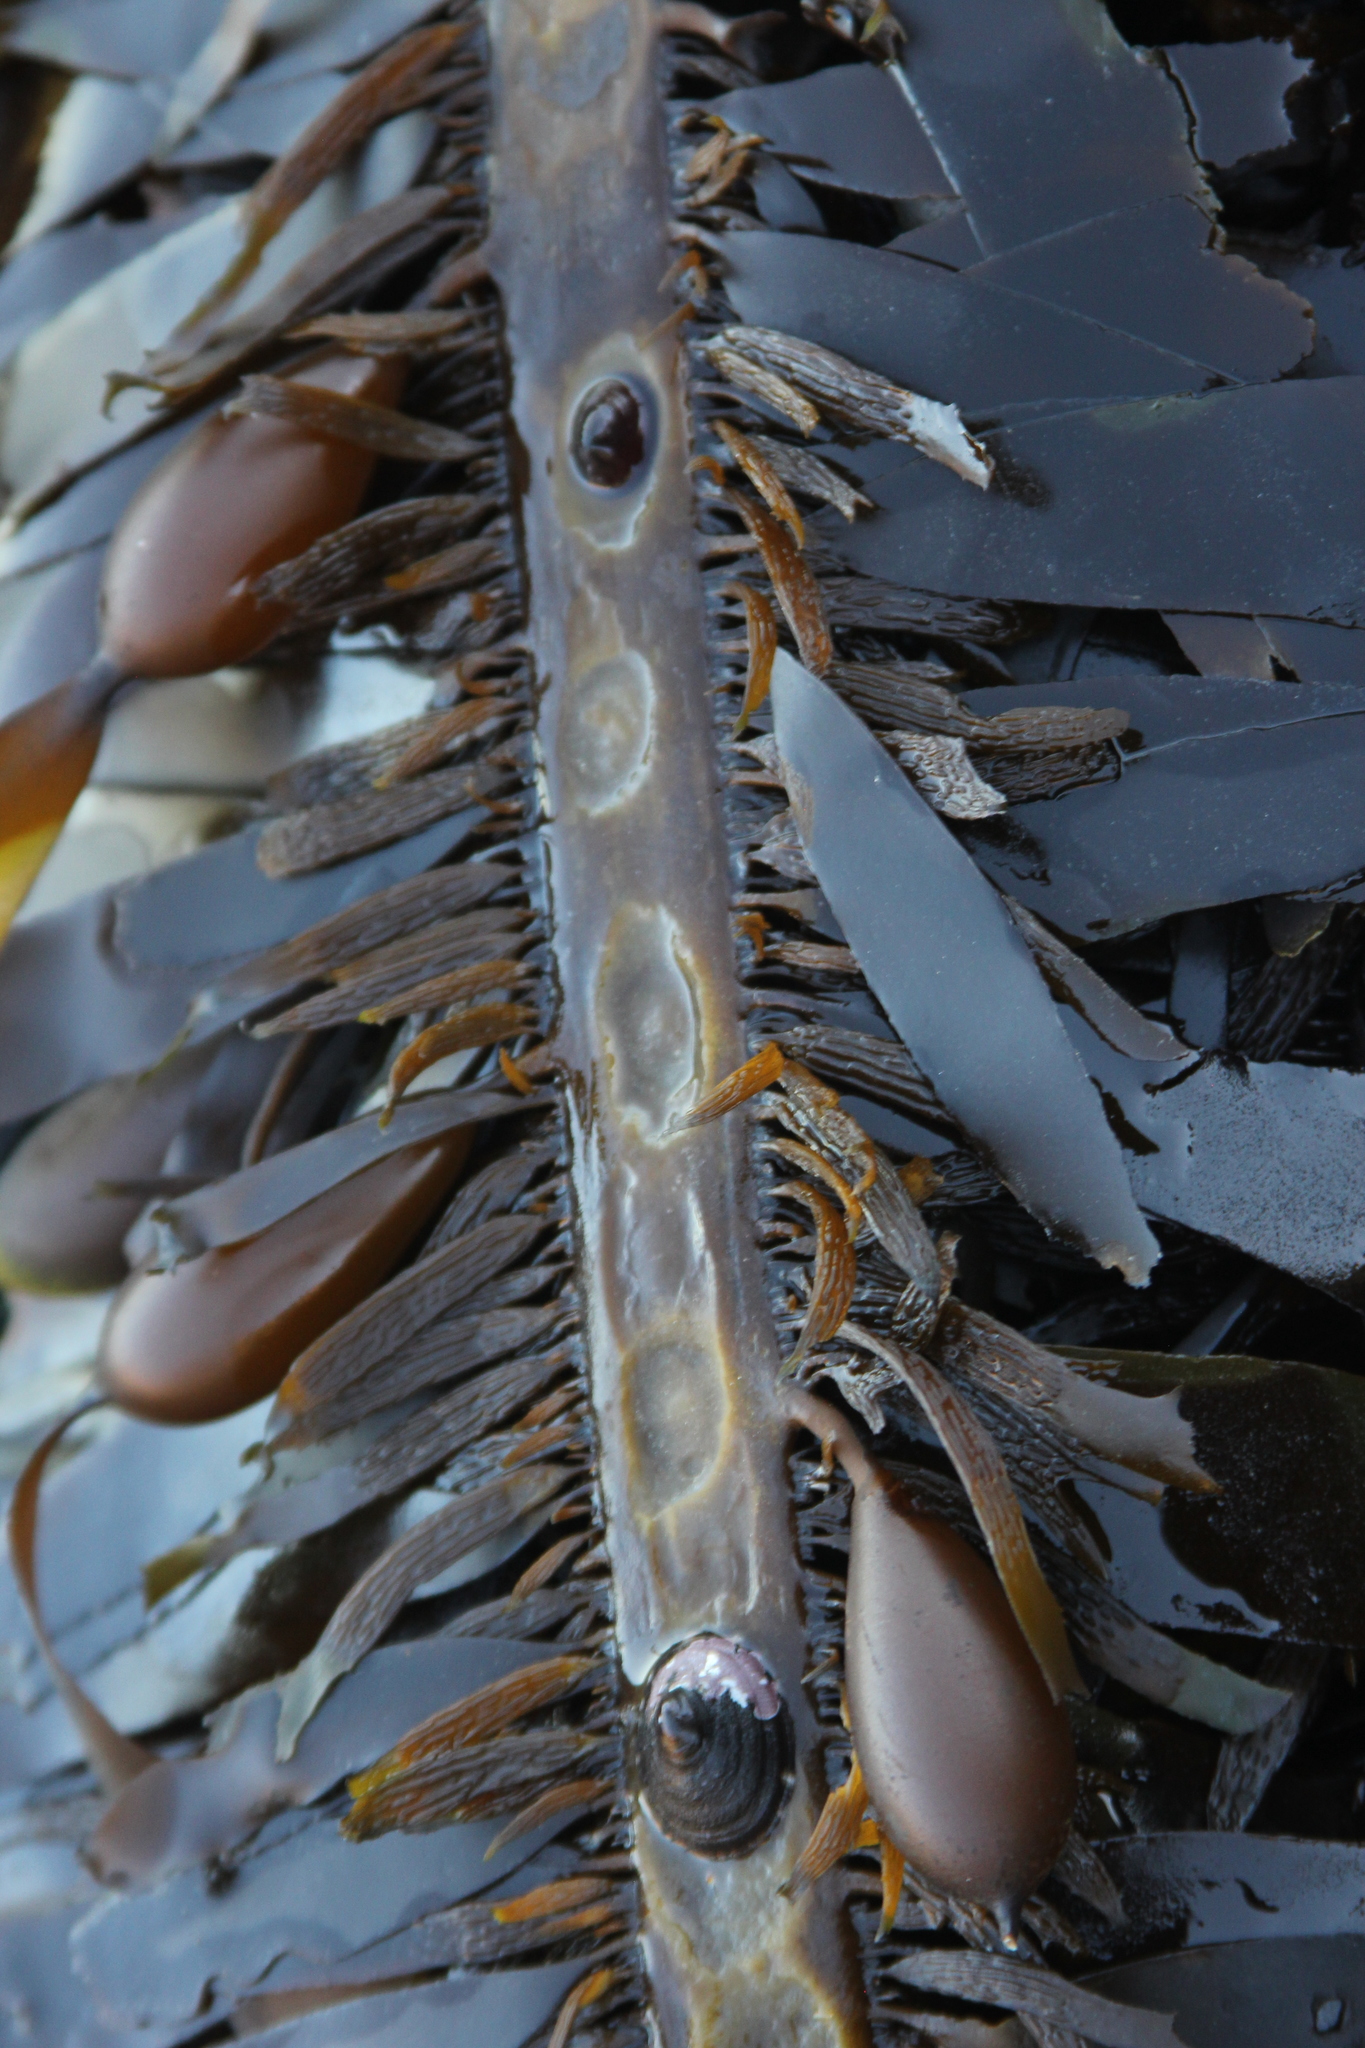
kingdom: Animalia
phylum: Mollusca
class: Gastropoda
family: Lottiidae
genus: Discurria
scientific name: Discurria insessa
